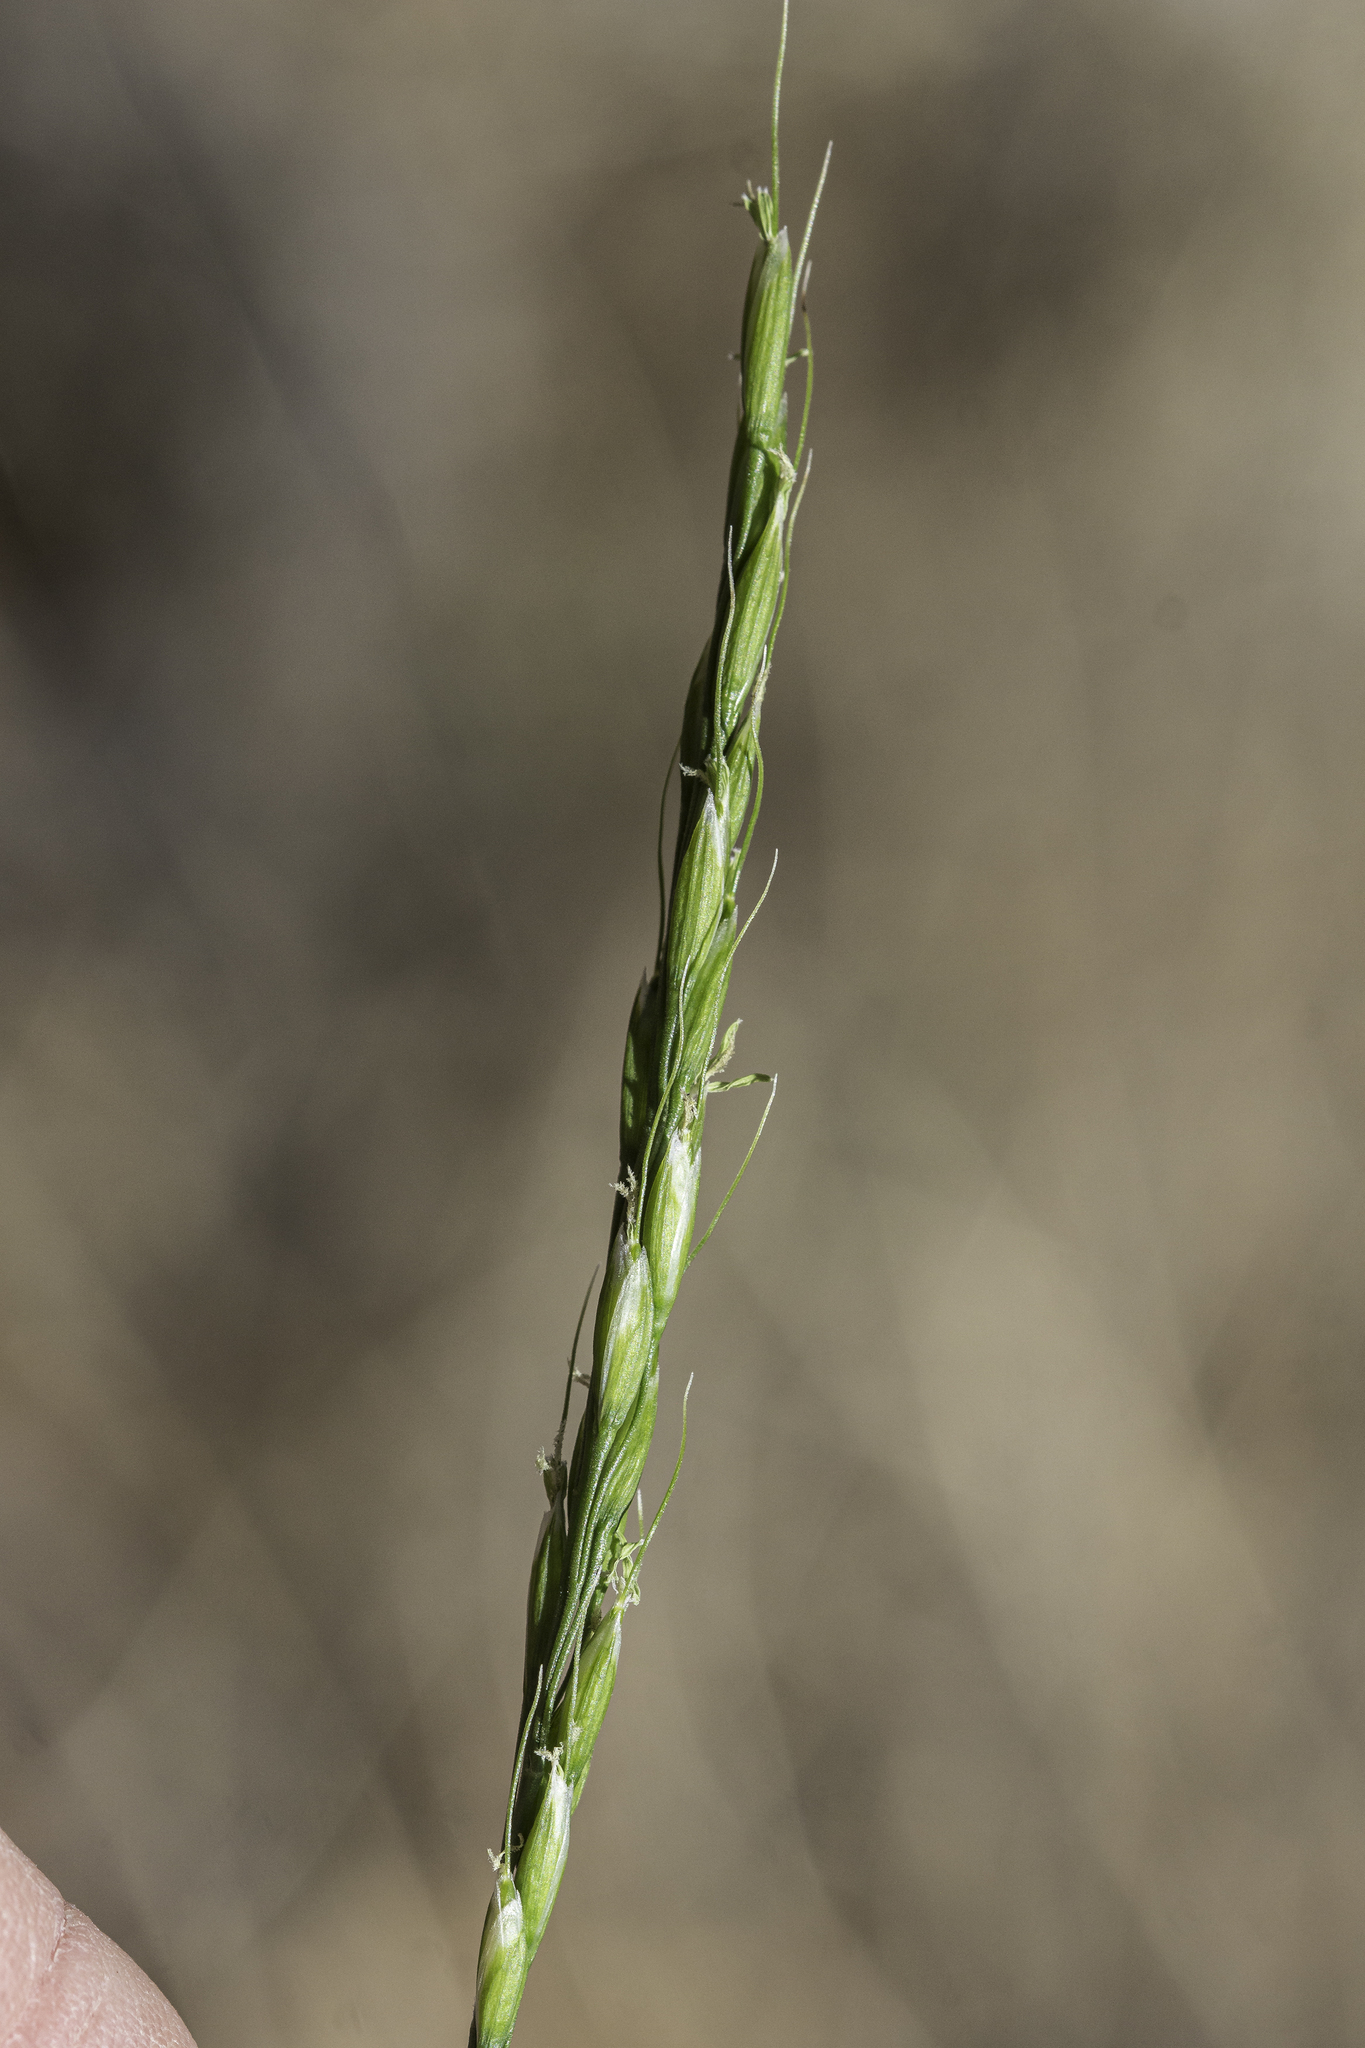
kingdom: Plantae
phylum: Tracheophyta
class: Liliopsida
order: Poales
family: Poaceae
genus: Oryzopsis
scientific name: Oryzopsis asperifolia
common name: Rough-leaved mountain rice
